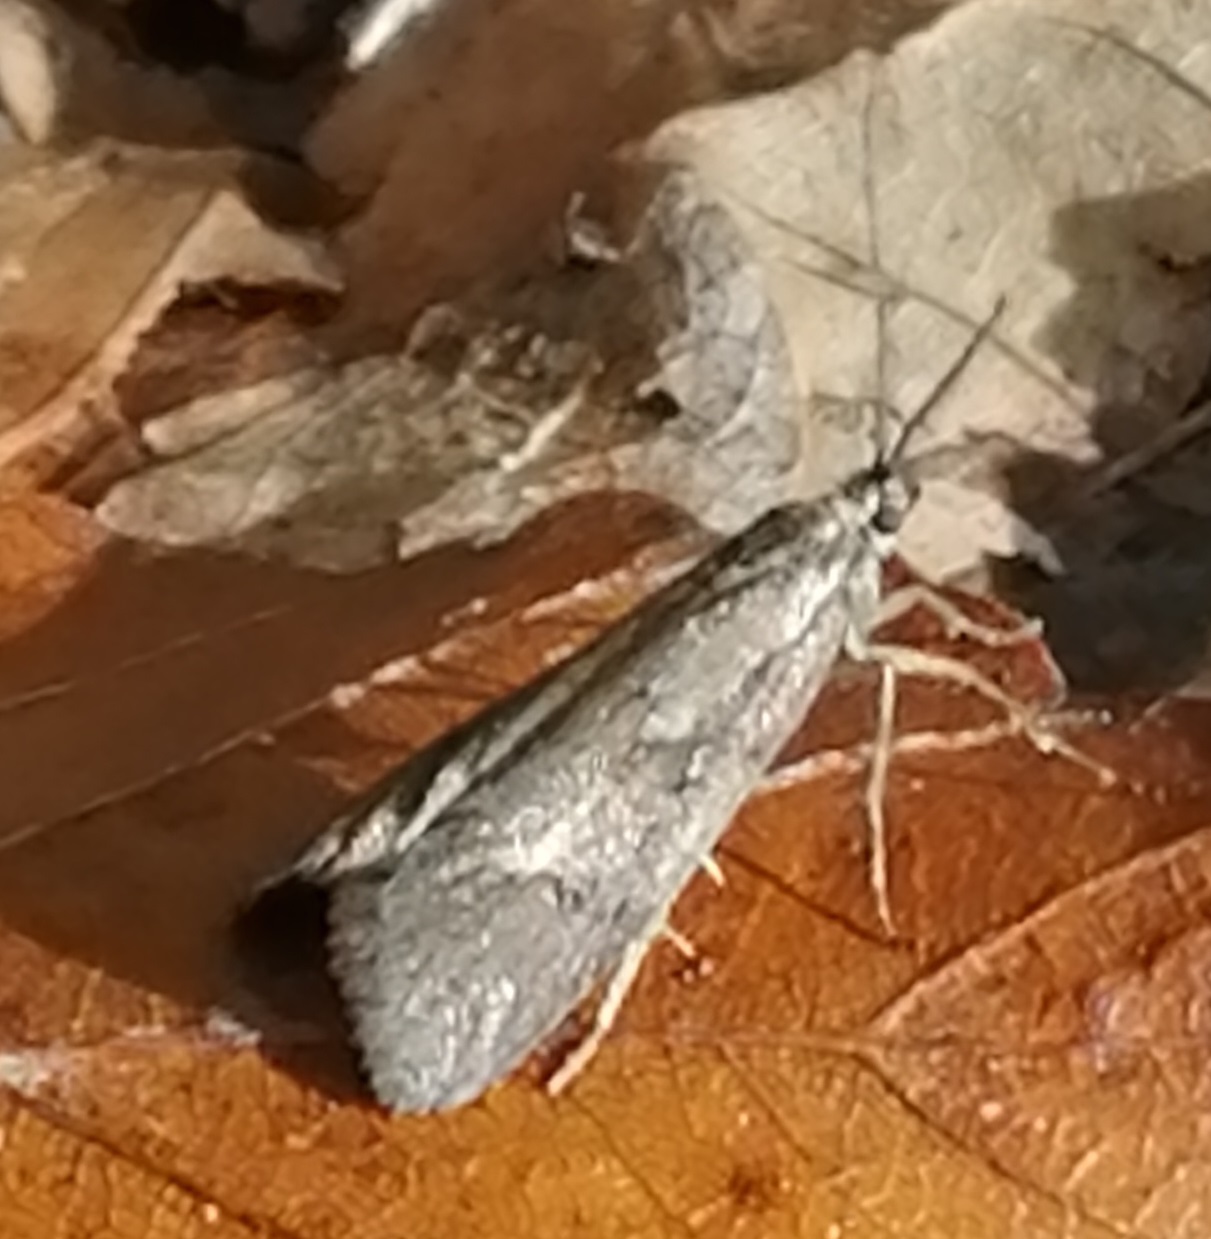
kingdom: Animalia
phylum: Arthropoda
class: Insecta
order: Lepidoptera
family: Lypusidae
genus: Diurnea
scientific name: Diurnea lipsiella
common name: November tubic
